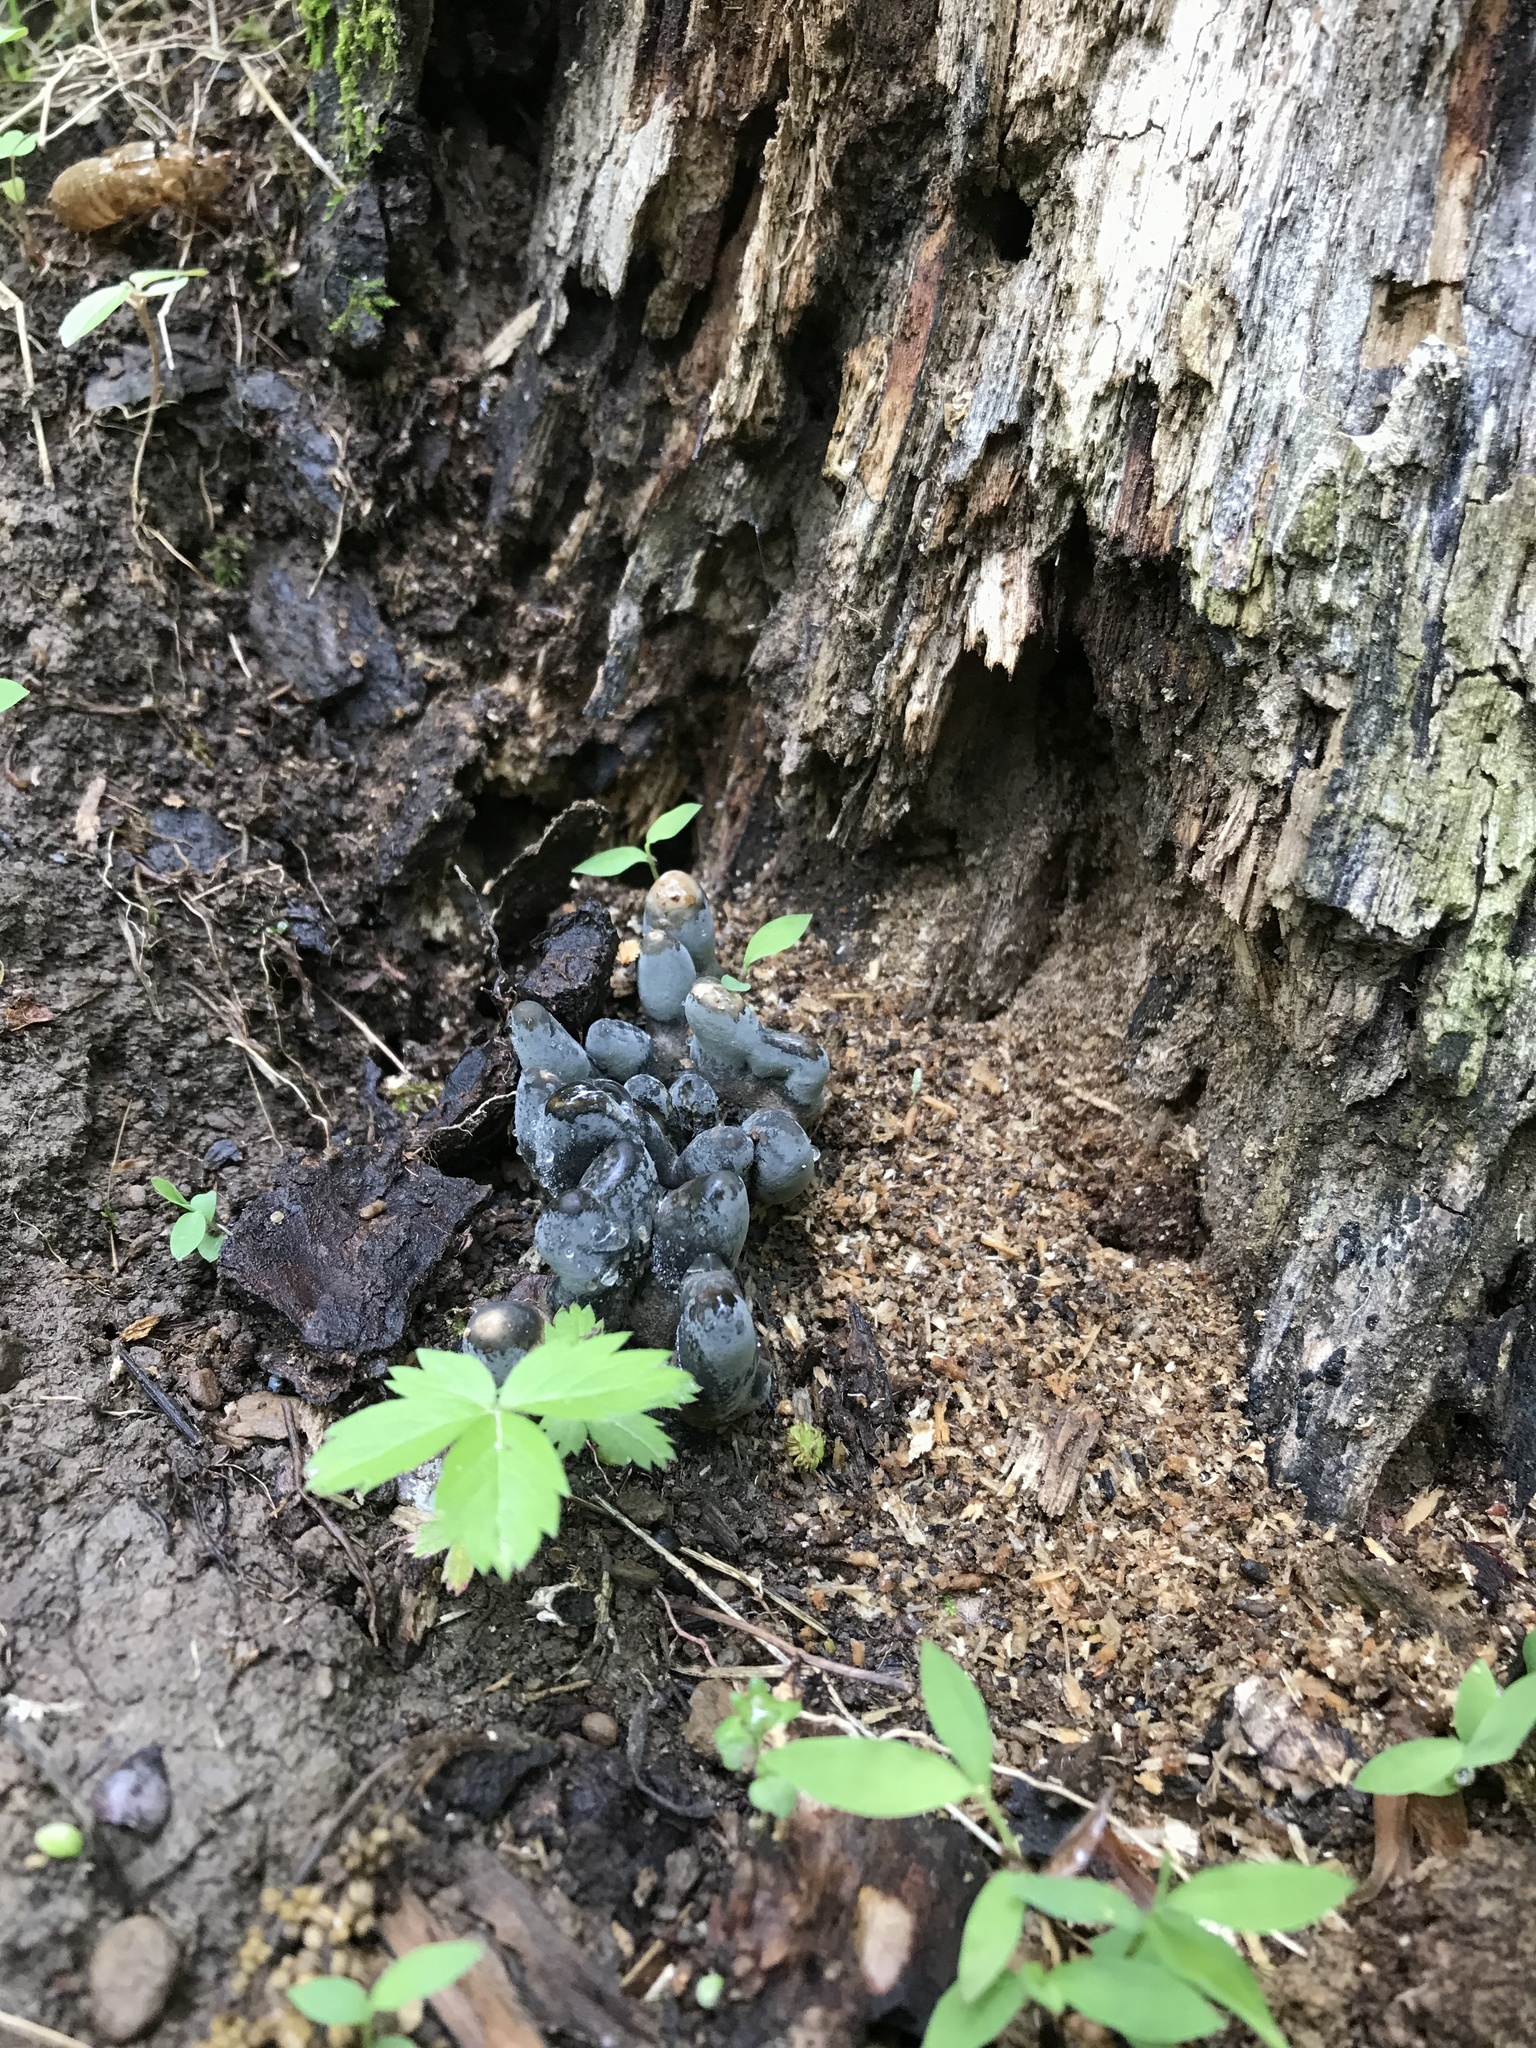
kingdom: Fungi
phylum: Ascomycota
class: Sordariomycetes
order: Xylariales
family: Xylariaceae
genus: Xylaria
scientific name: Xylaria polymorpha
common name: Dead man's fingers
